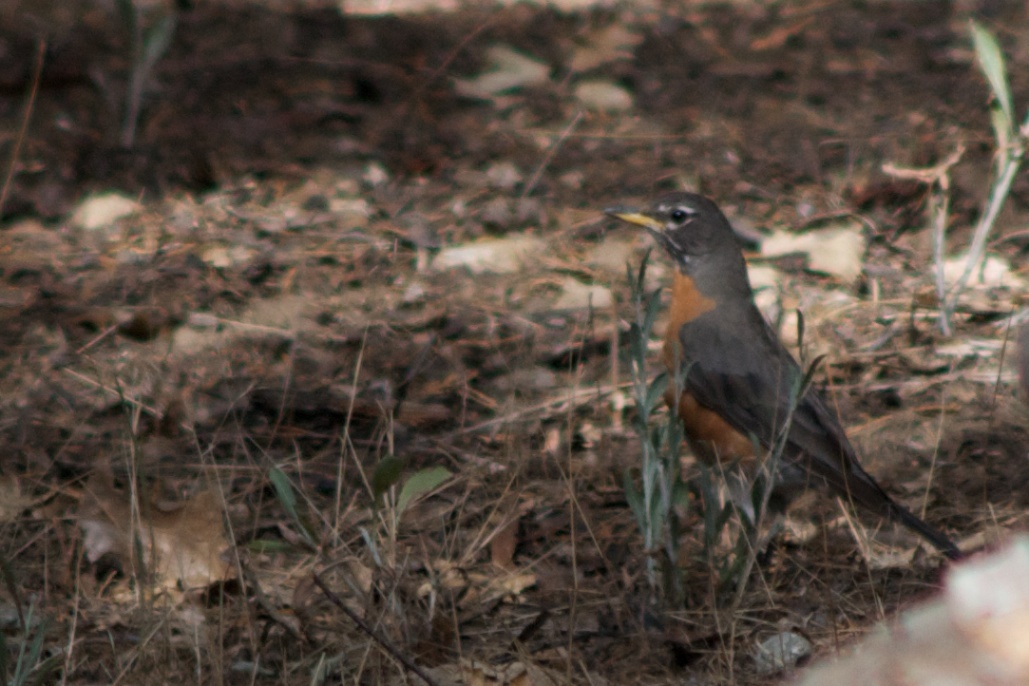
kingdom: Animalia
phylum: Chordata
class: Aves
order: Passeriformes
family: Turdidae
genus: Turdus
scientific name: Turdus migratorius
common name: American robin
